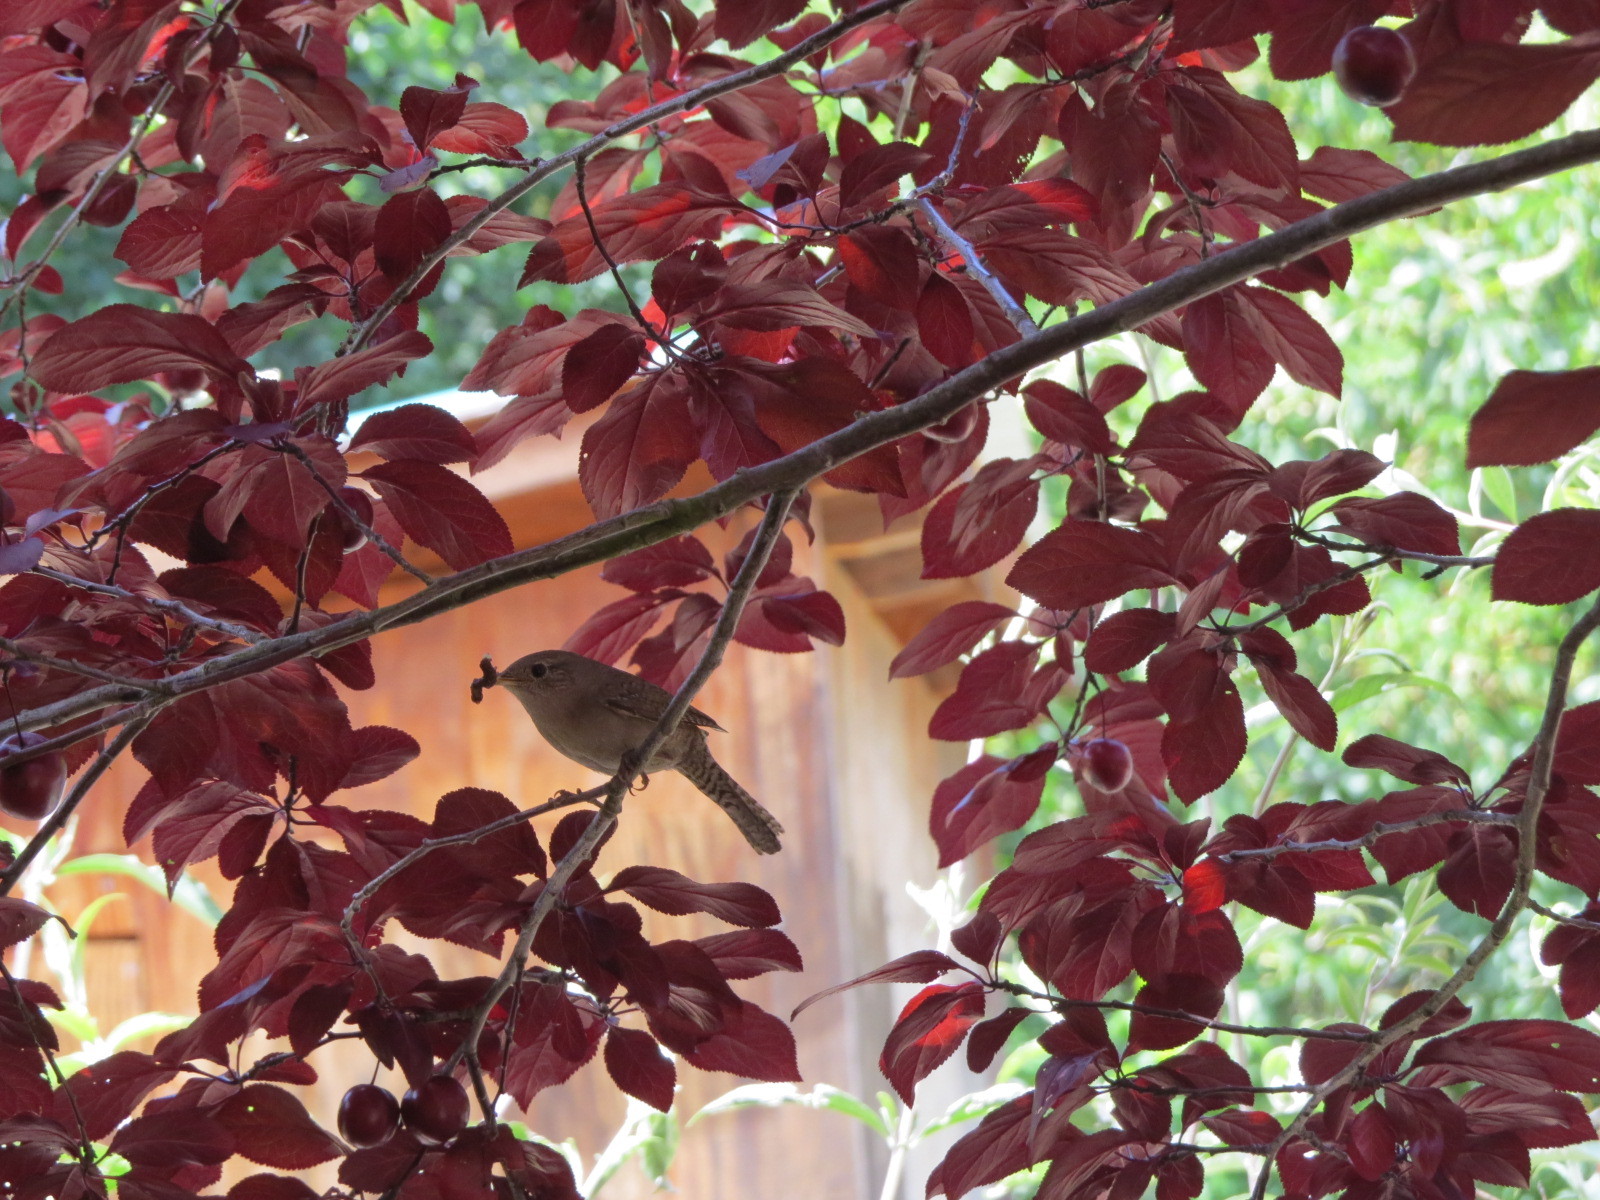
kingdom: Animalia
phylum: Chordata
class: Aves
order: Passeriformes
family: Troglodytidae
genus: Troglodytes
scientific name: Troglodytes aedon
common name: House wren
